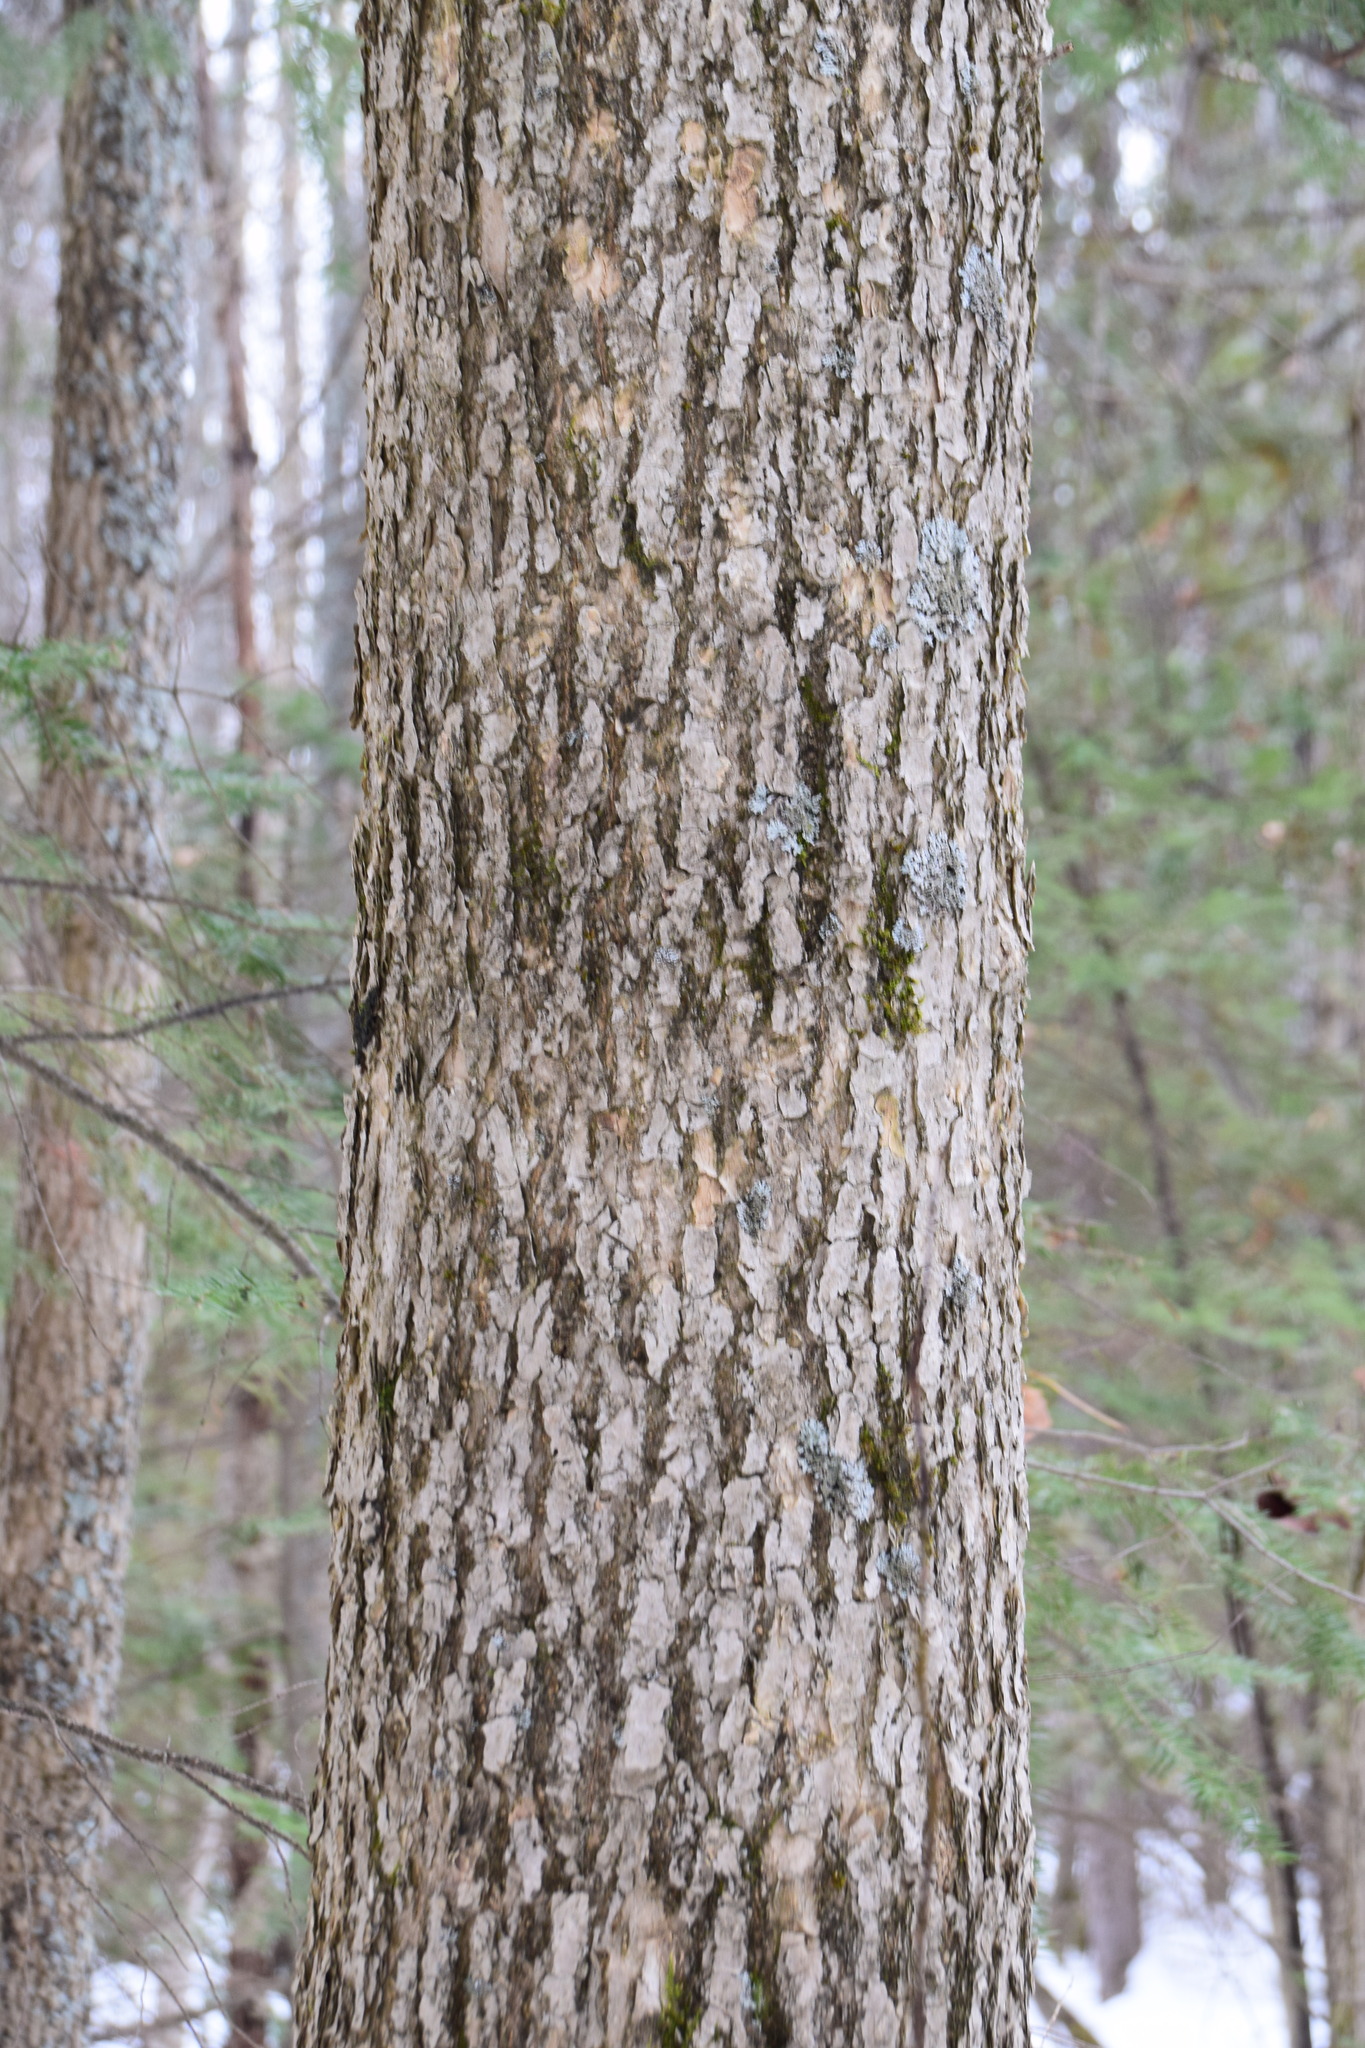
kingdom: Plantae
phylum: Tracheophyta
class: Magnoliopsida
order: Lamiales
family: Oleaceae
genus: Fraxinus
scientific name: Fraxinus nigra
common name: Black ash
